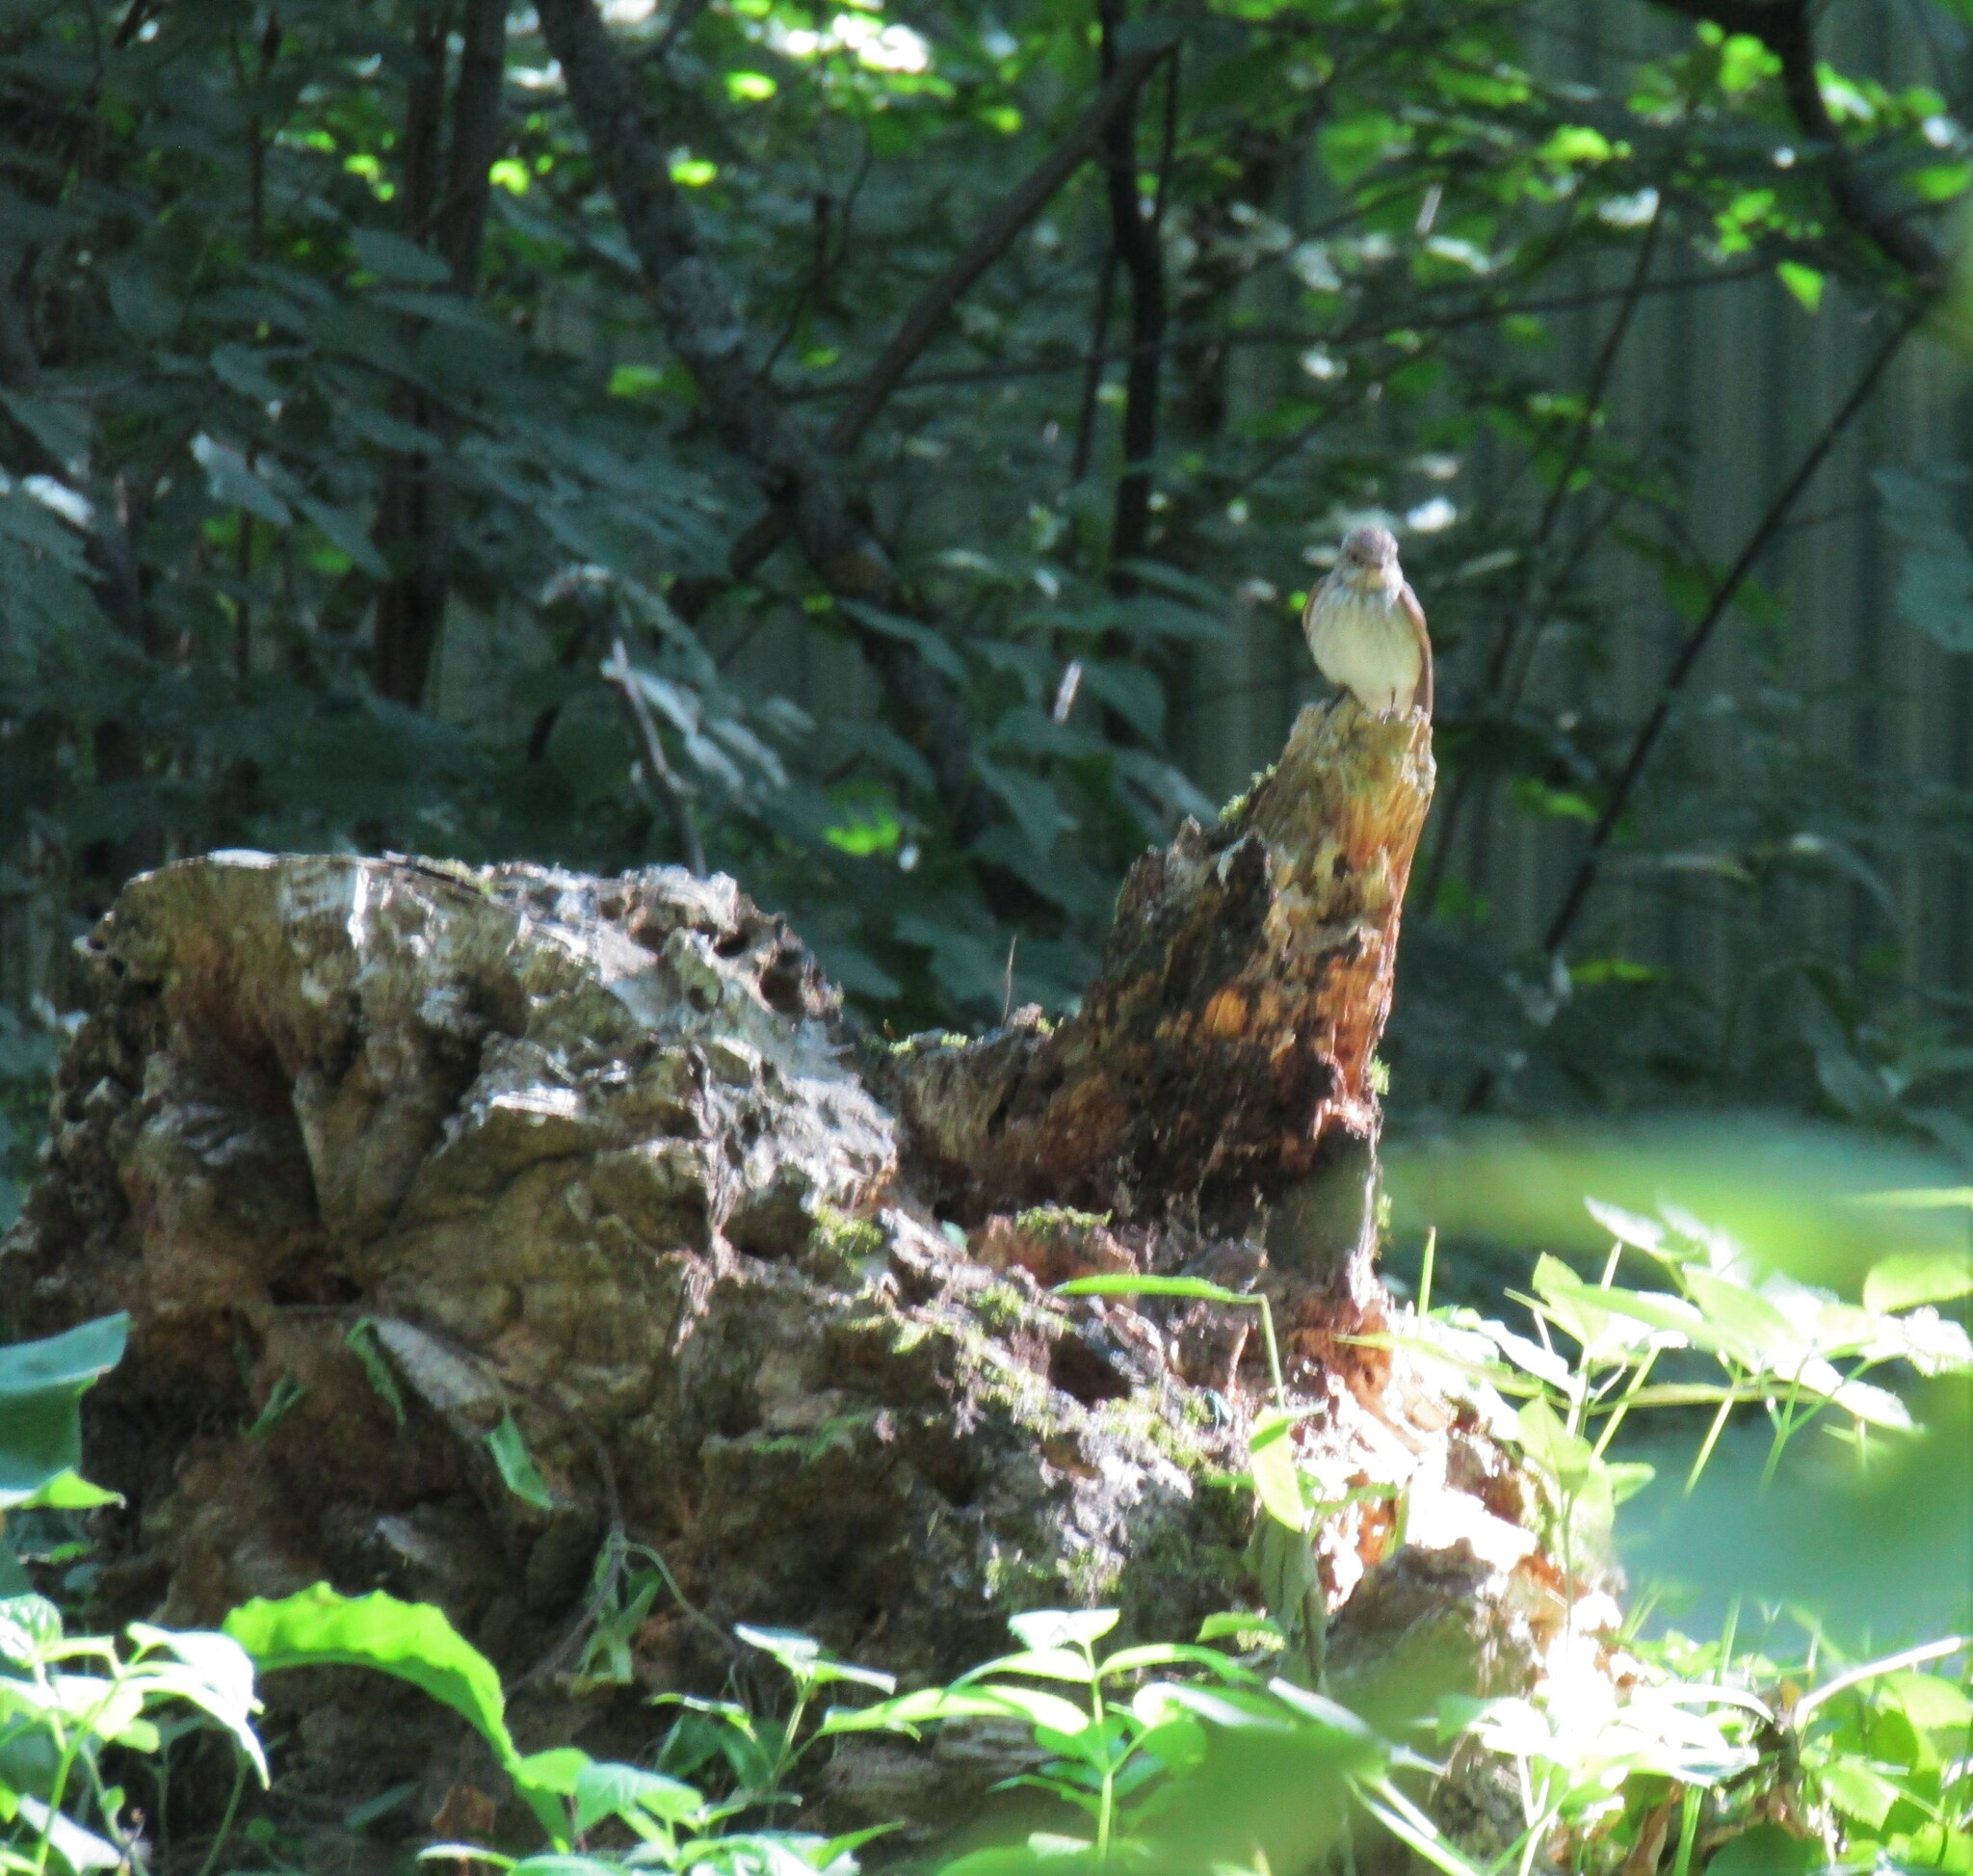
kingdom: Animalia
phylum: Chordata
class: Aves
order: Passeriformes
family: Muscicapidae
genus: Muscicapa
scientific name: Muscicapa striata
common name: Spotted flycatcher
